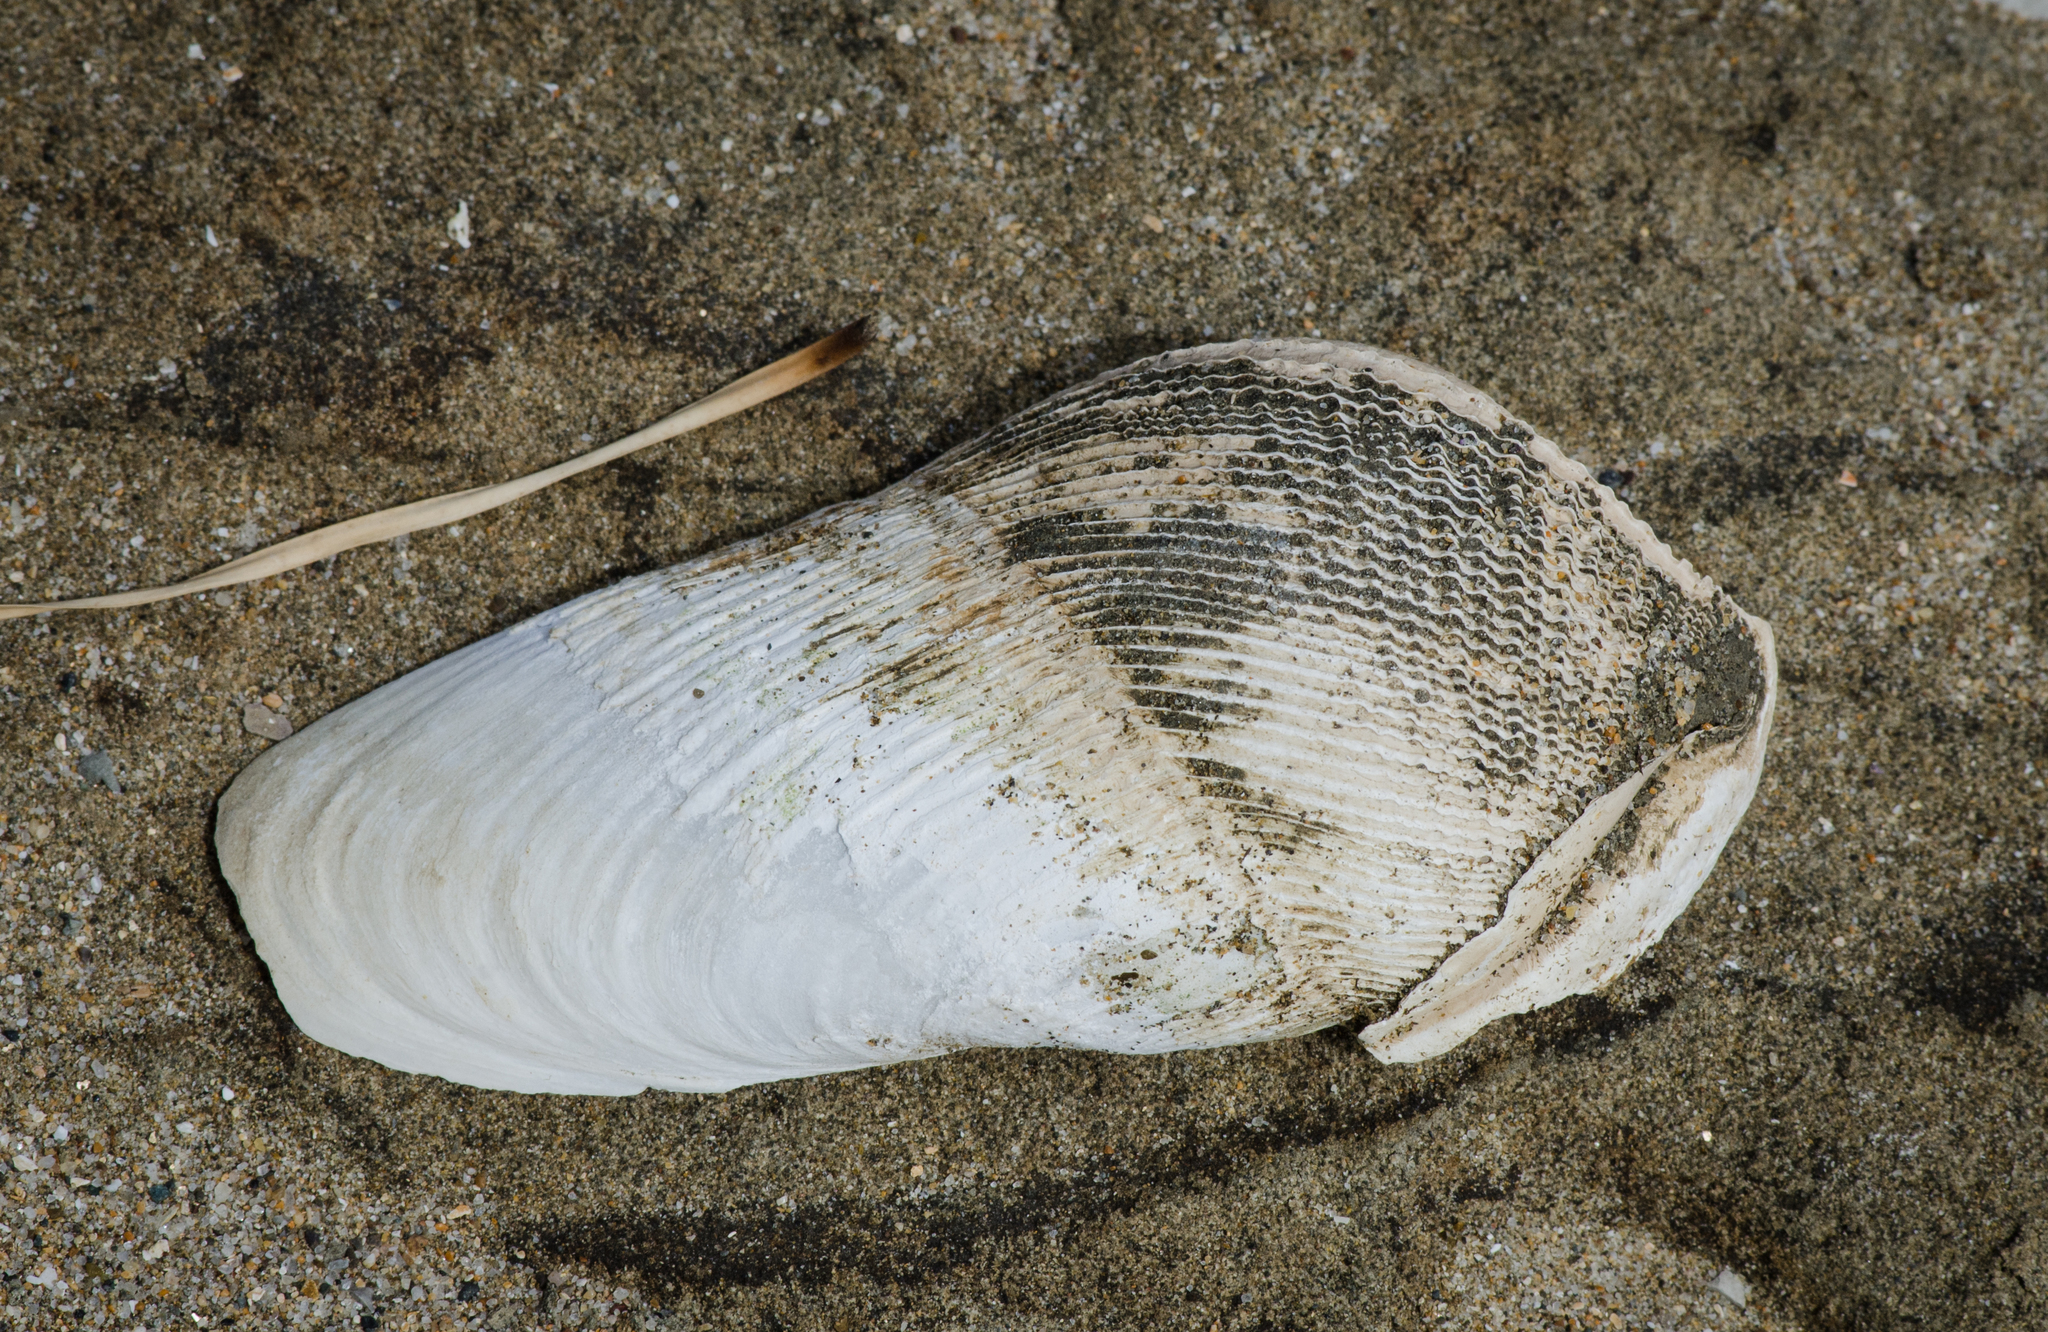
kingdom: Animalia
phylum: Mollusca
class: Bivalvia
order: Myida
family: Pholadidae
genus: Zirfaea
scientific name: Zirfaea pilsbryi
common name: Rough piddock
